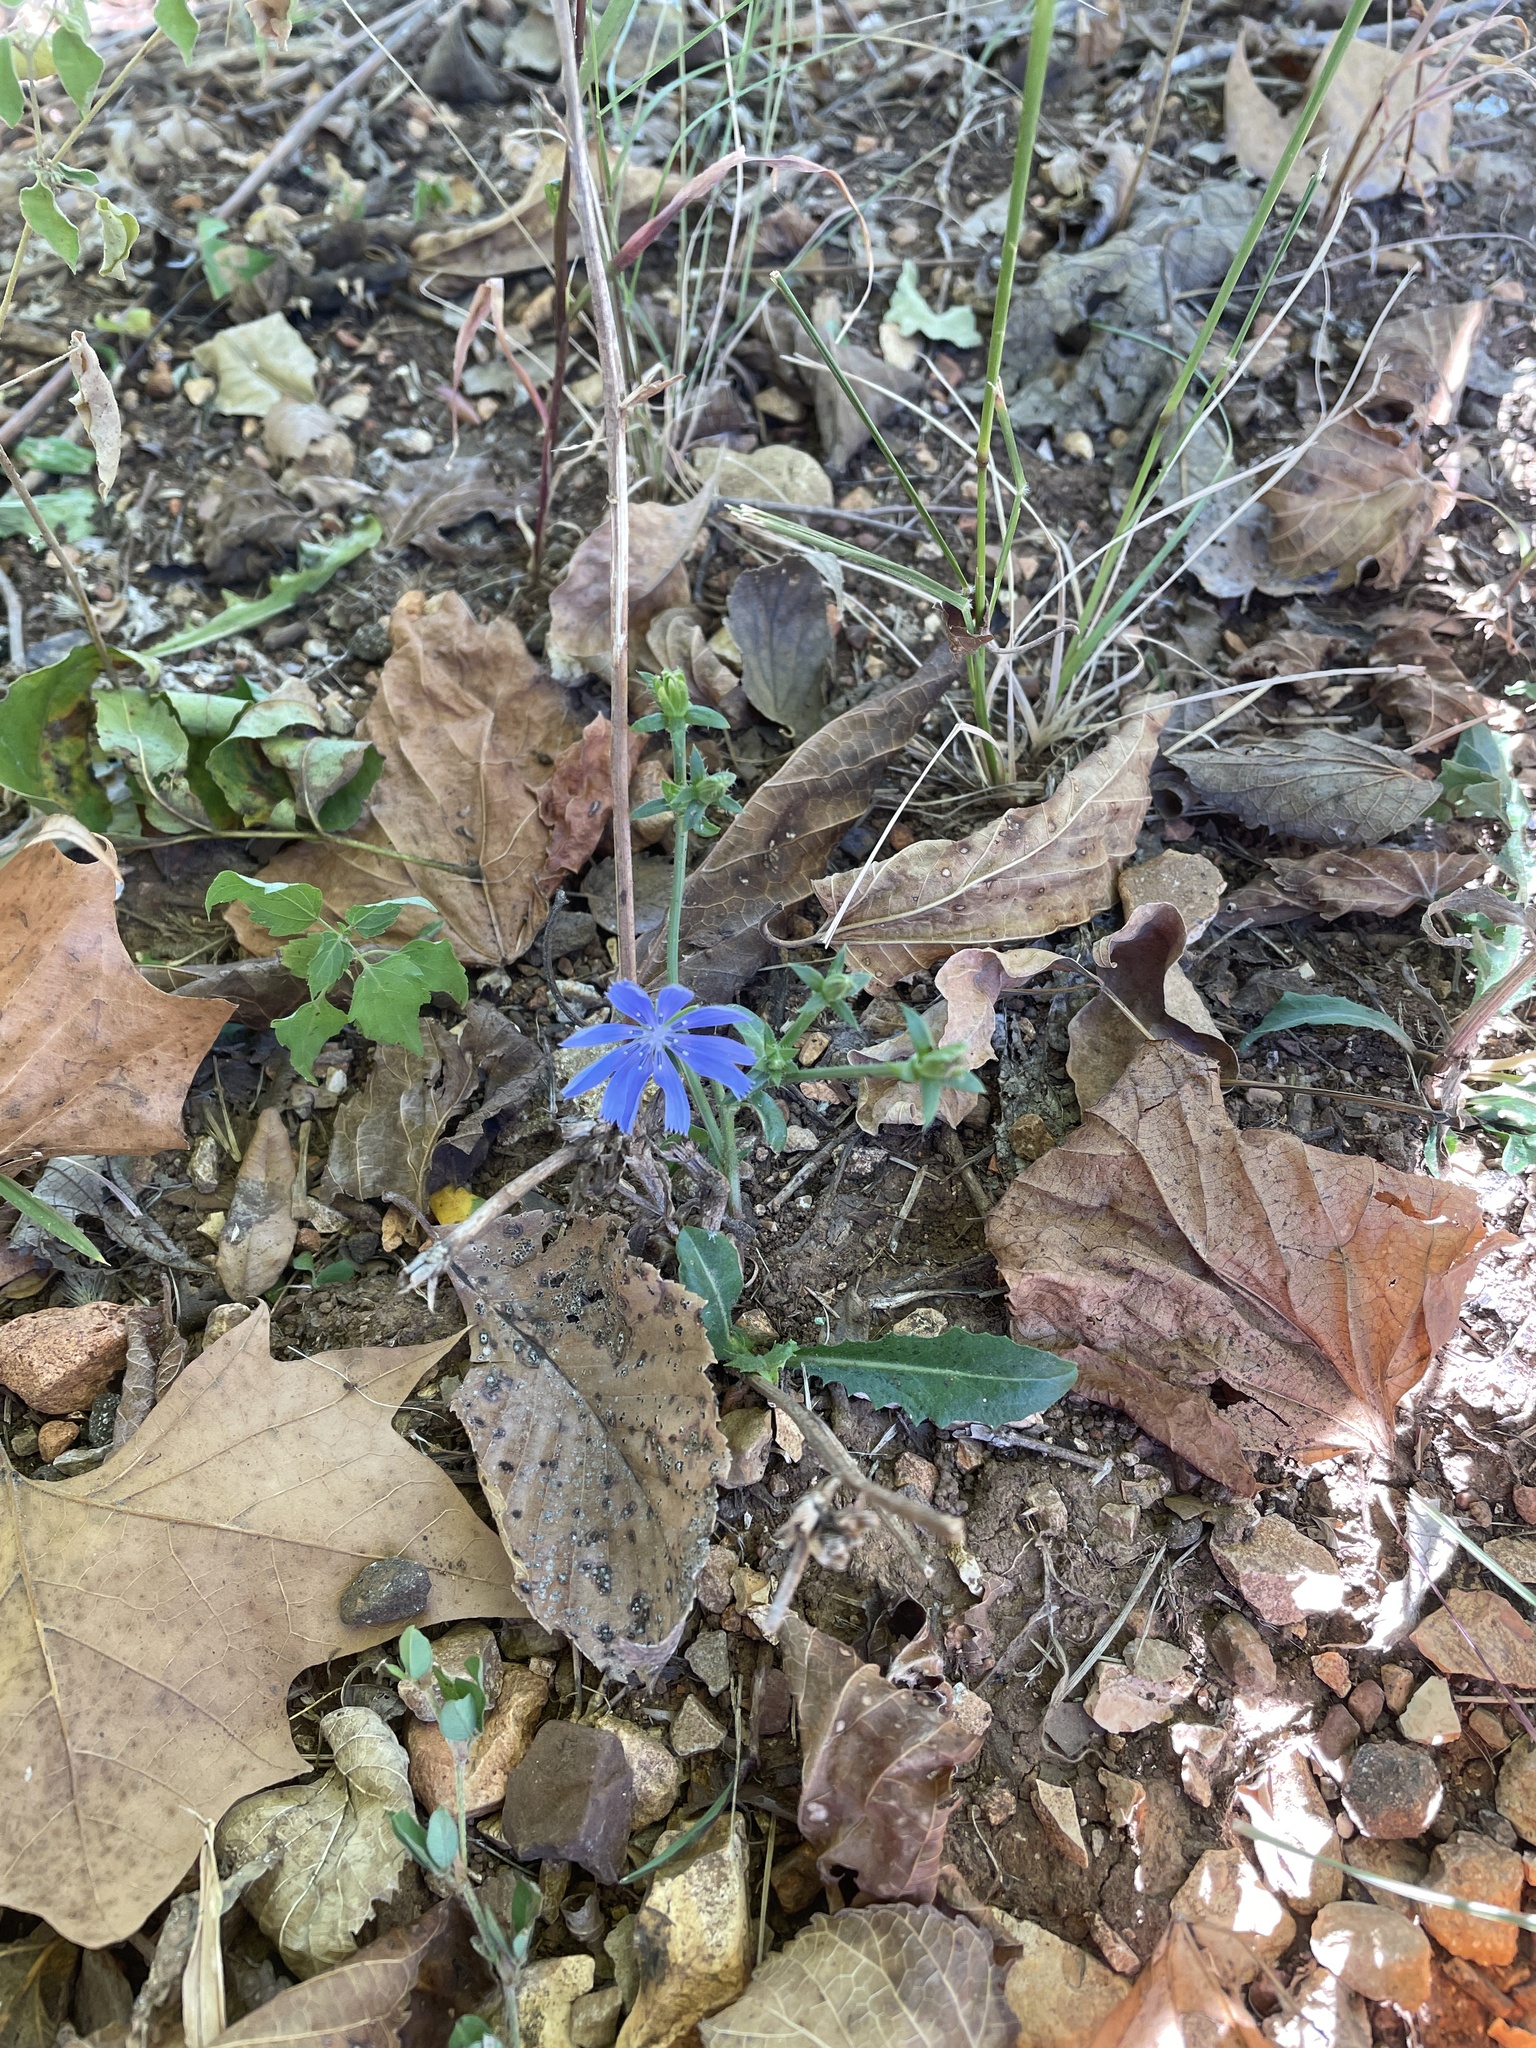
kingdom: Plantae
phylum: Tracheophyta
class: Magnoliopsida
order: Asterales
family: Asteraceae
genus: Cichorium
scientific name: Cichorium intybus
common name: Chicory
